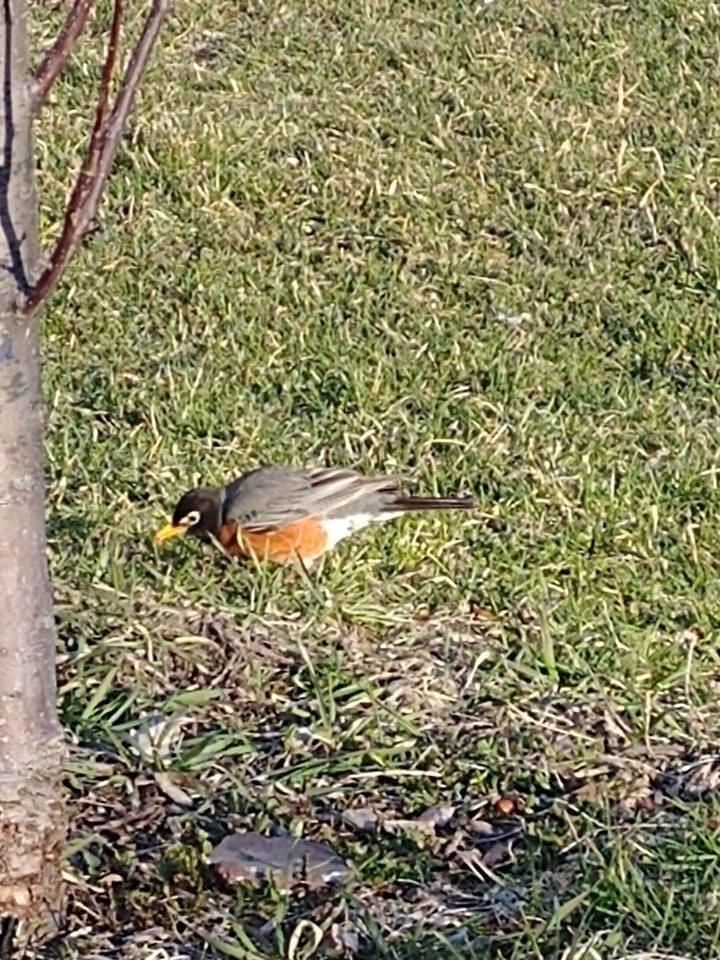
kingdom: Animalia
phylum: Chordata
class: Aves
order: Passeriformes
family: Turdidae
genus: Turdus
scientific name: Turdus migratorius
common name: American robin
